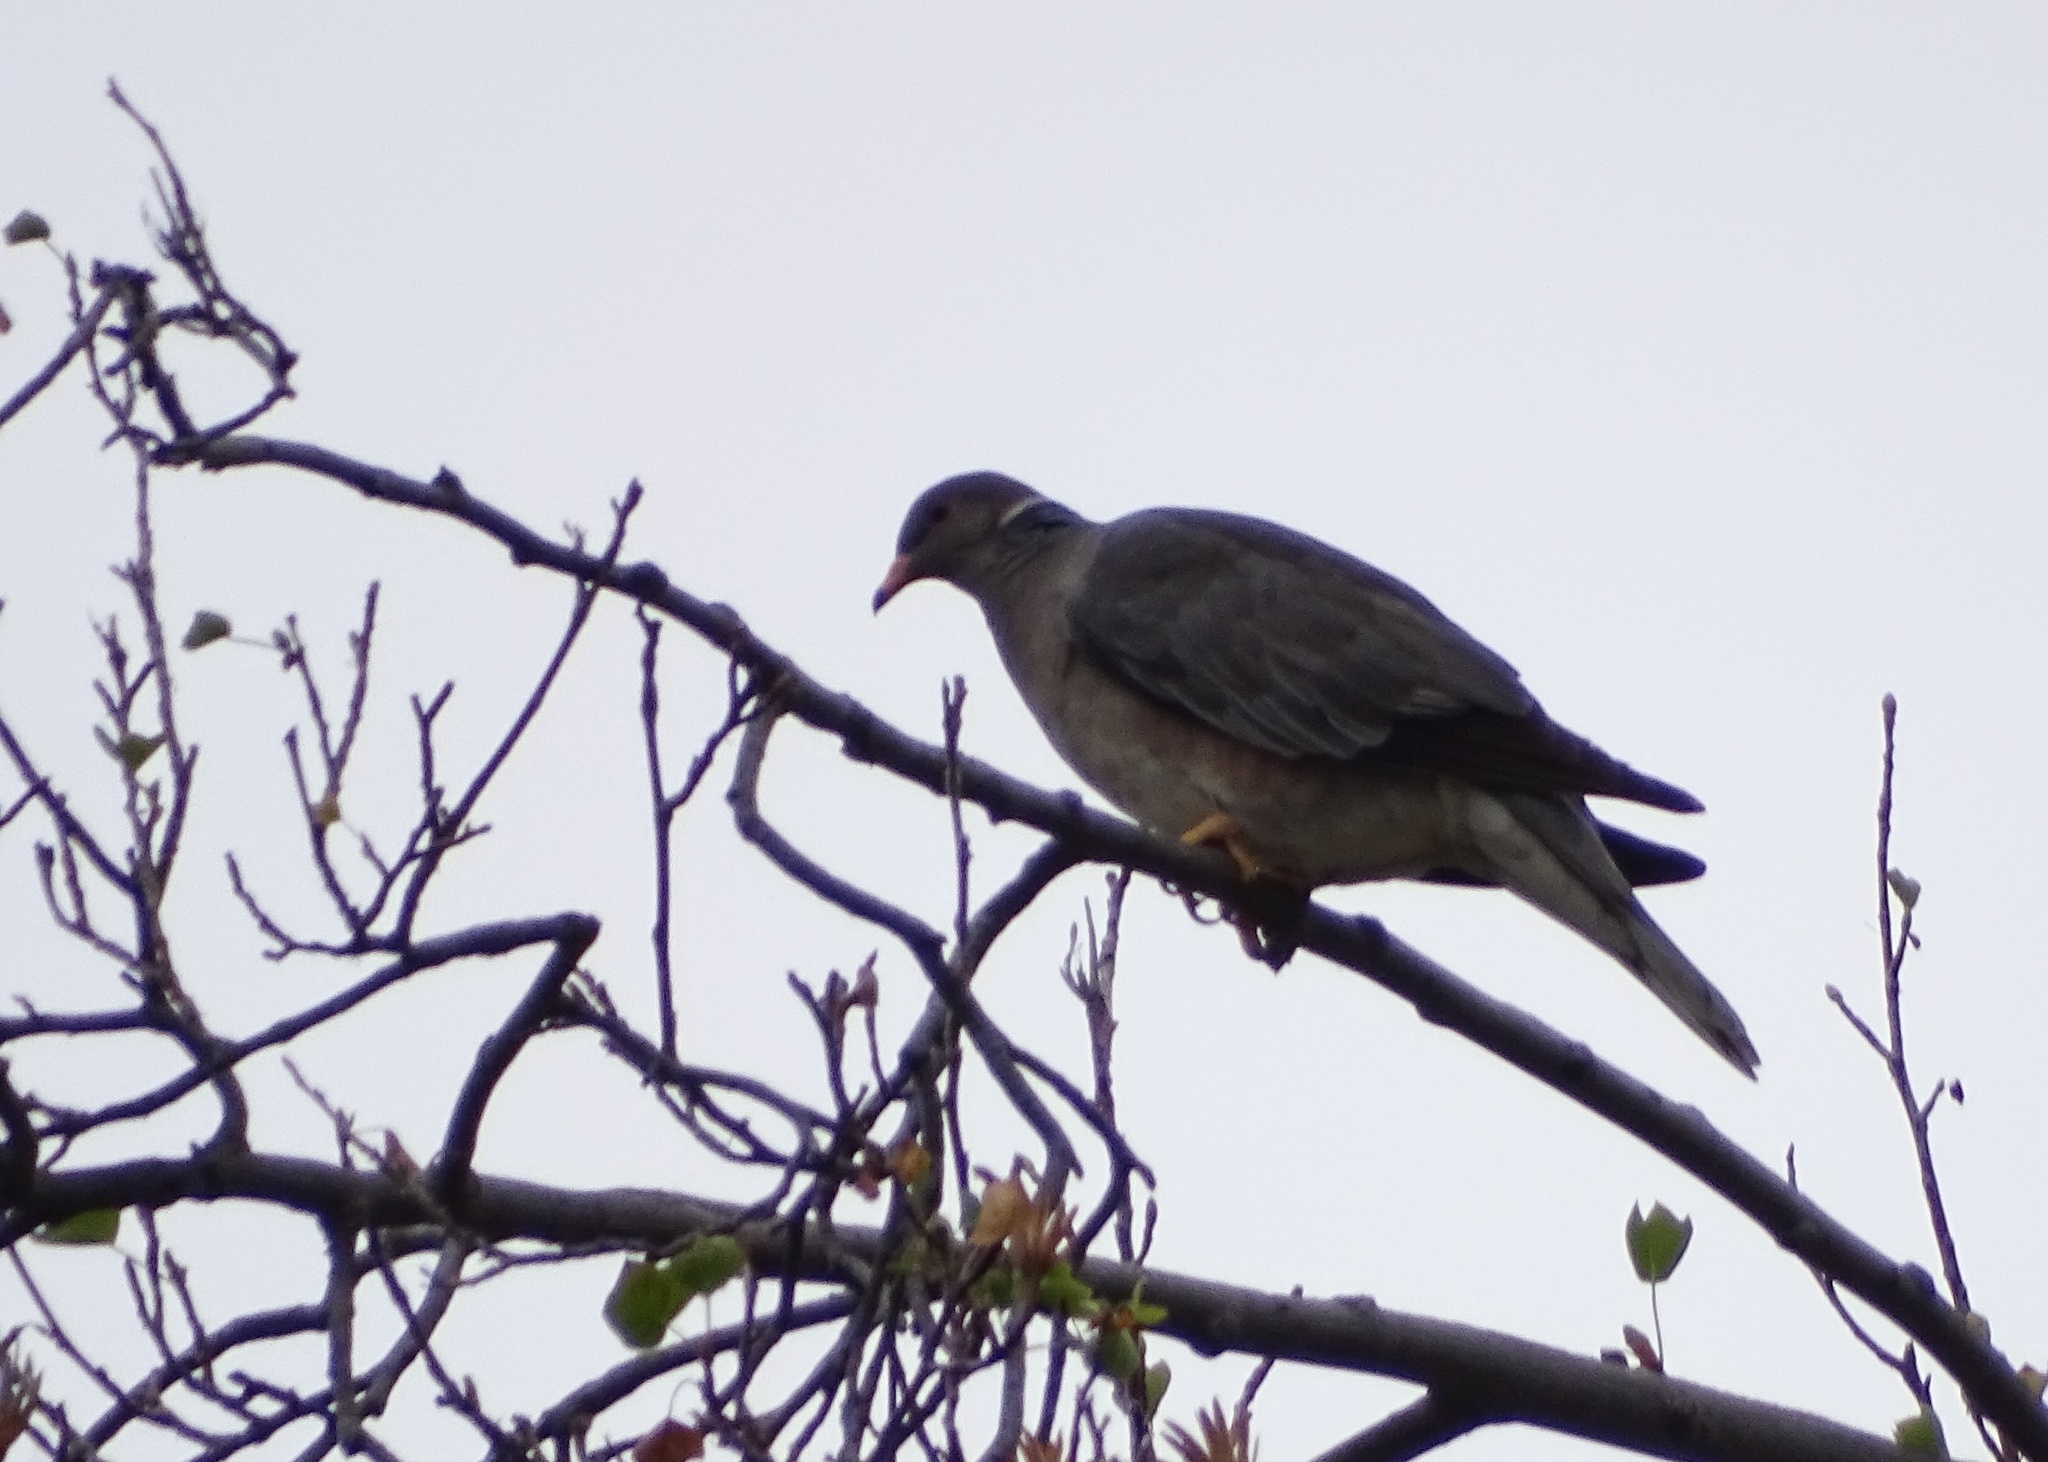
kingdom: Animalia
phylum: Chordata
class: Aves
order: Columbiformes
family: Columbidae
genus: Patagioenas
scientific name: Patagioenas fasciata
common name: Band-tailed pigeon
